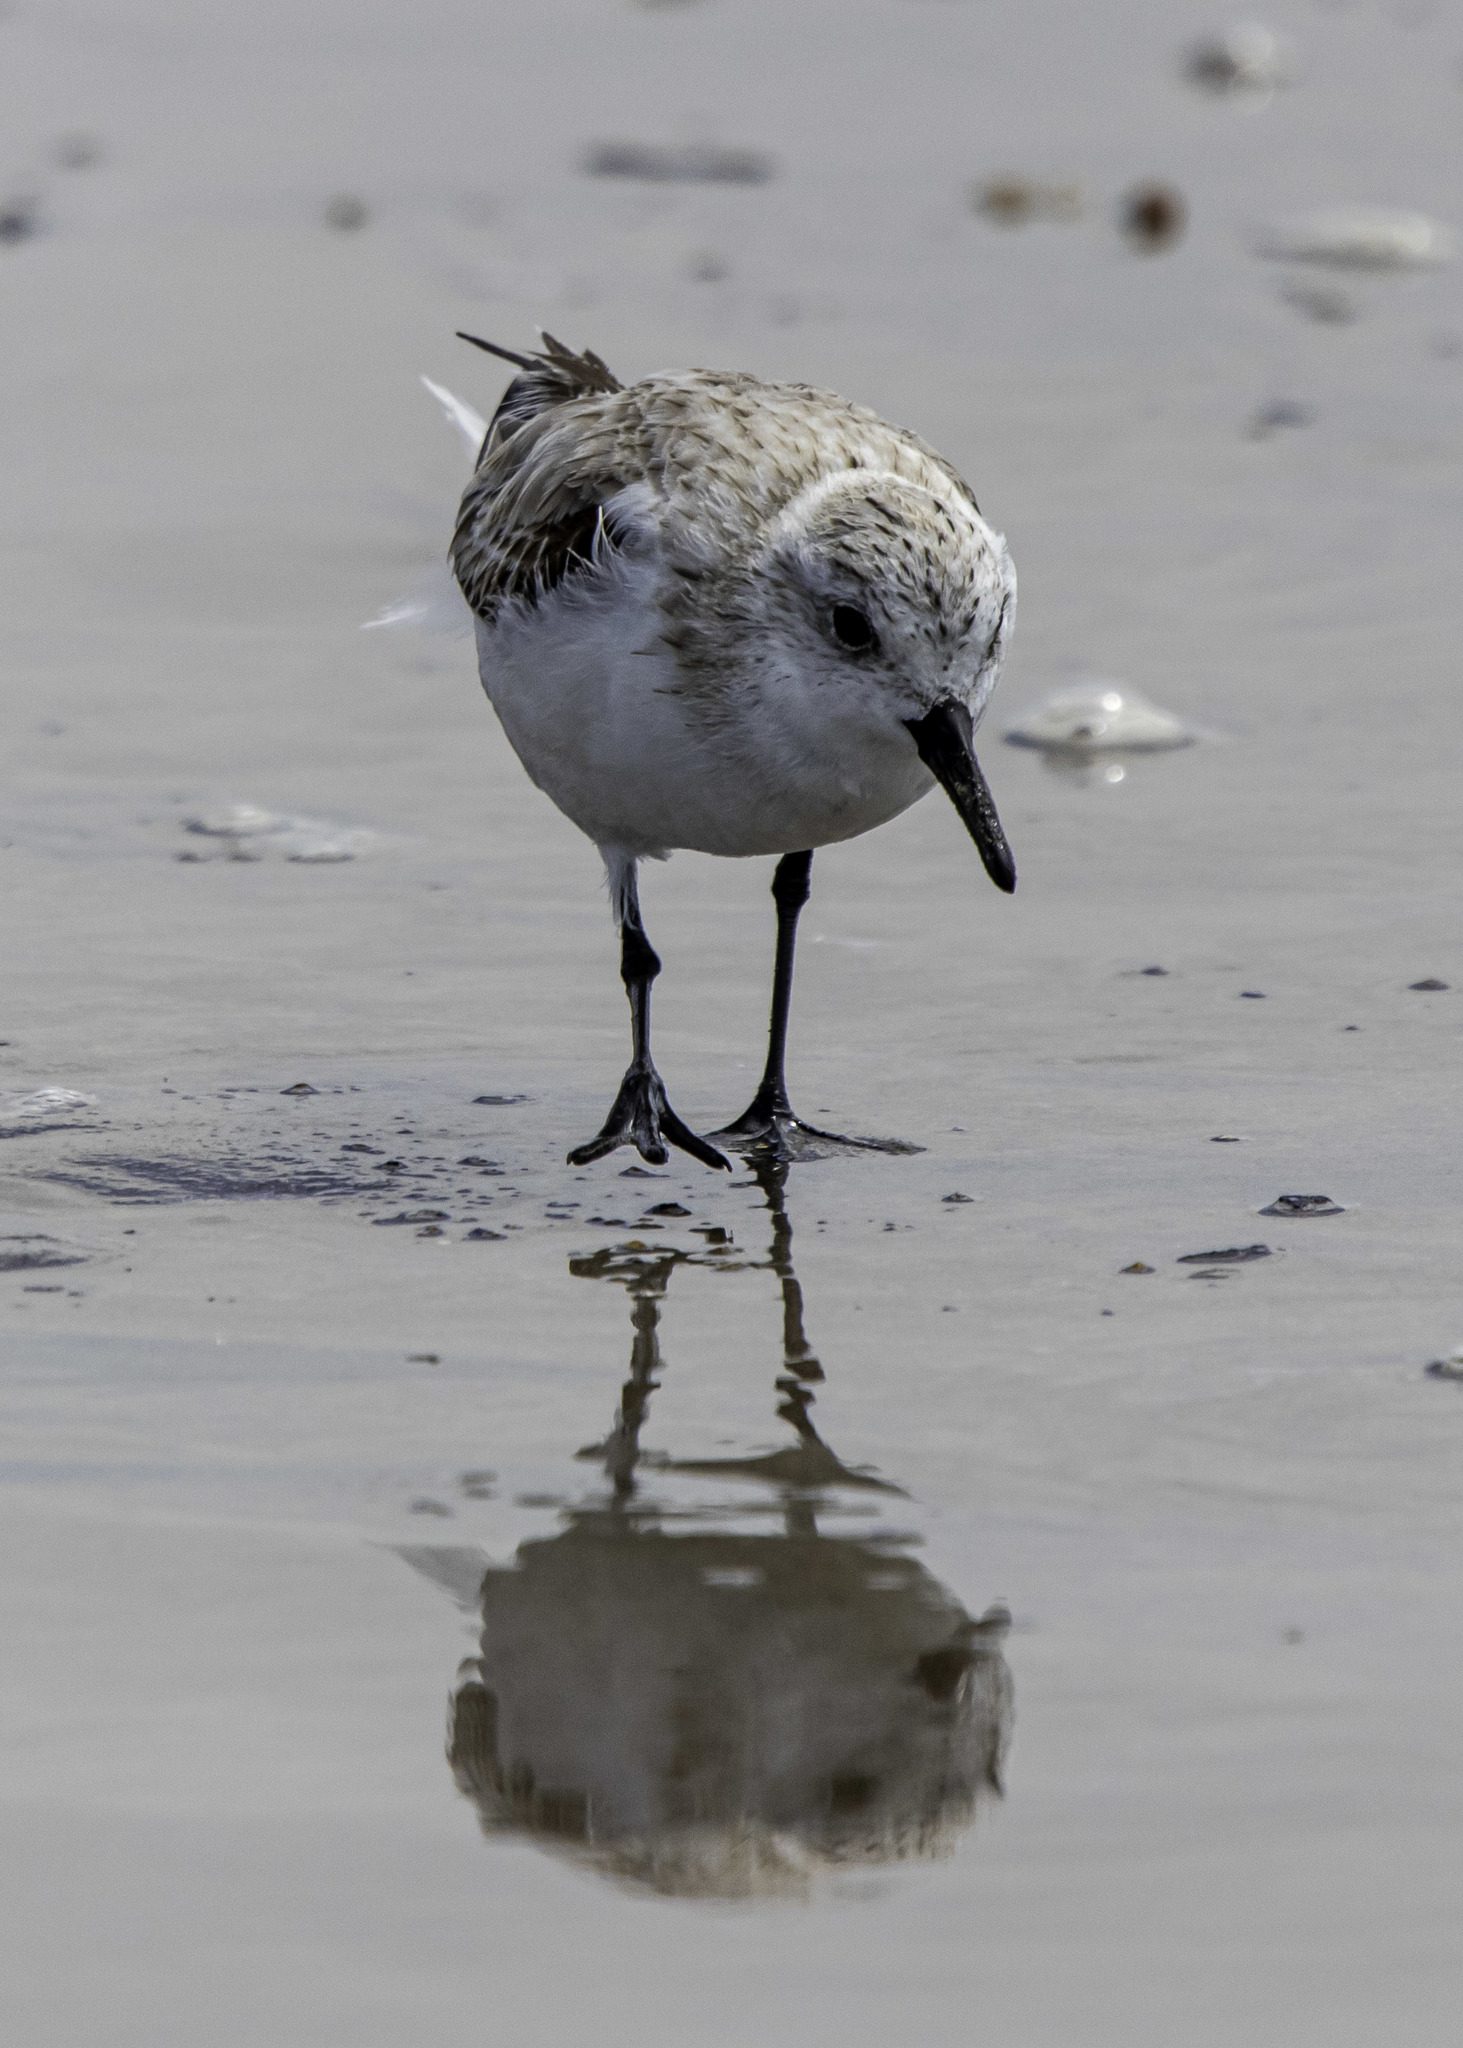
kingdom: Animalia
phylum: Chordata
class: Aves
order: Charadriiformes
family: Scolopacidae
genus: Calidris
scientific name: Calidris alba
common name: Sanderling
